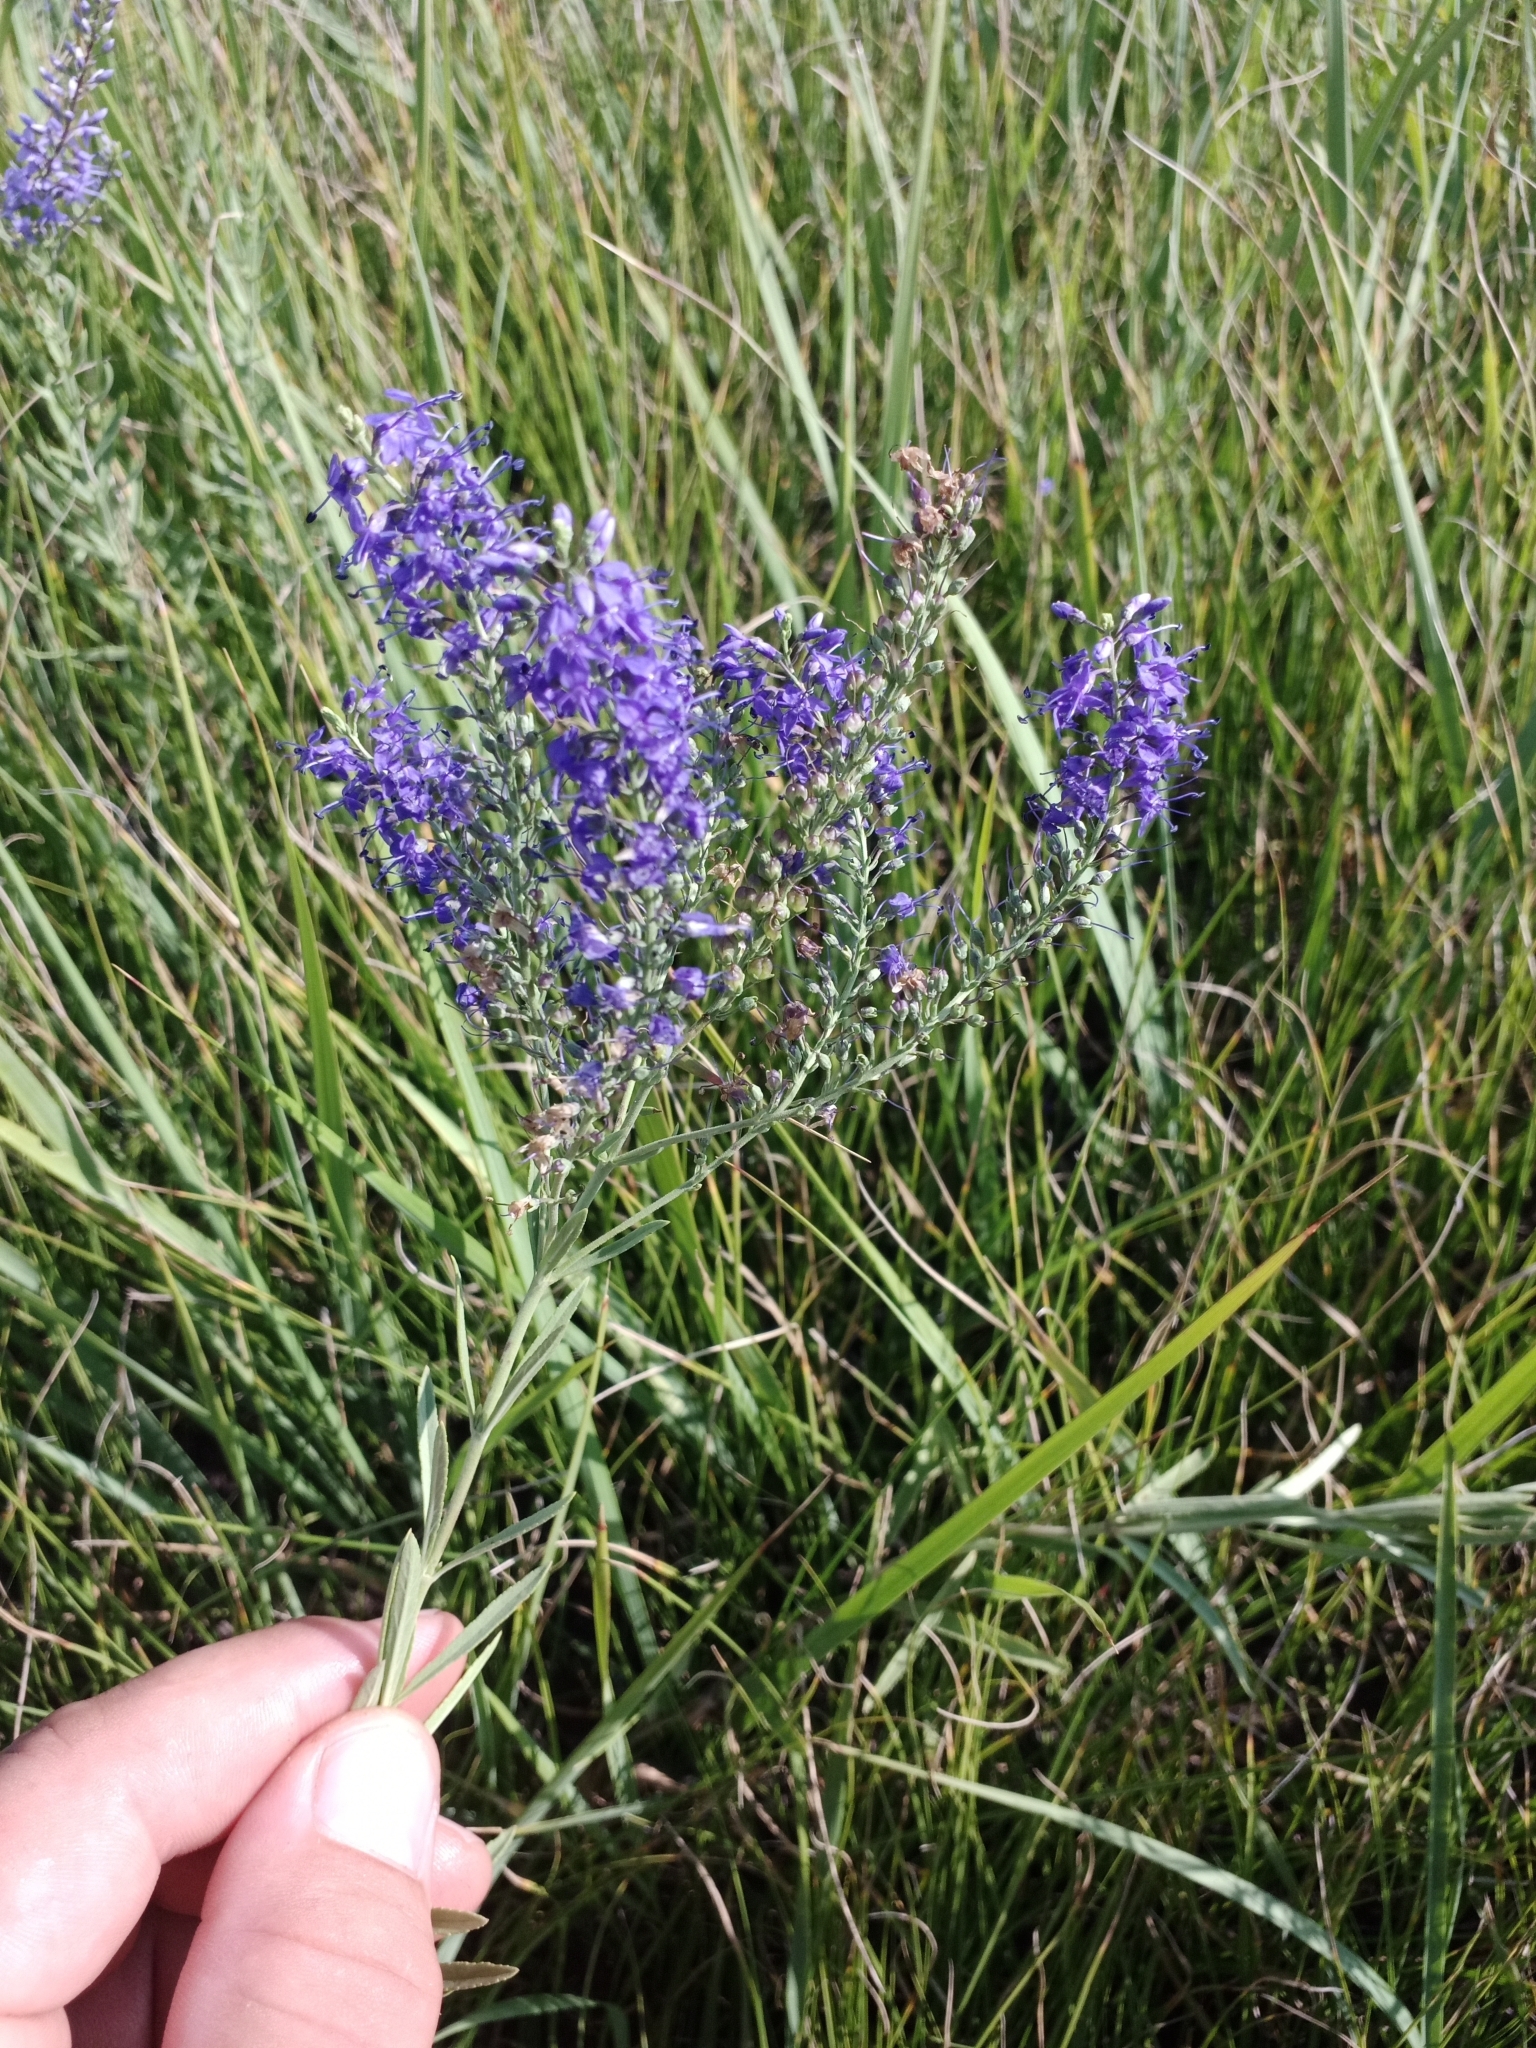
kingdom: Plantae
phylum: Tracheophyta
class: Magnoliopsida
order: Lamiales
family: Plantaginaceae
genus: Veronica
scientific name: Veronica spuria
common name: Bastard speedwell
